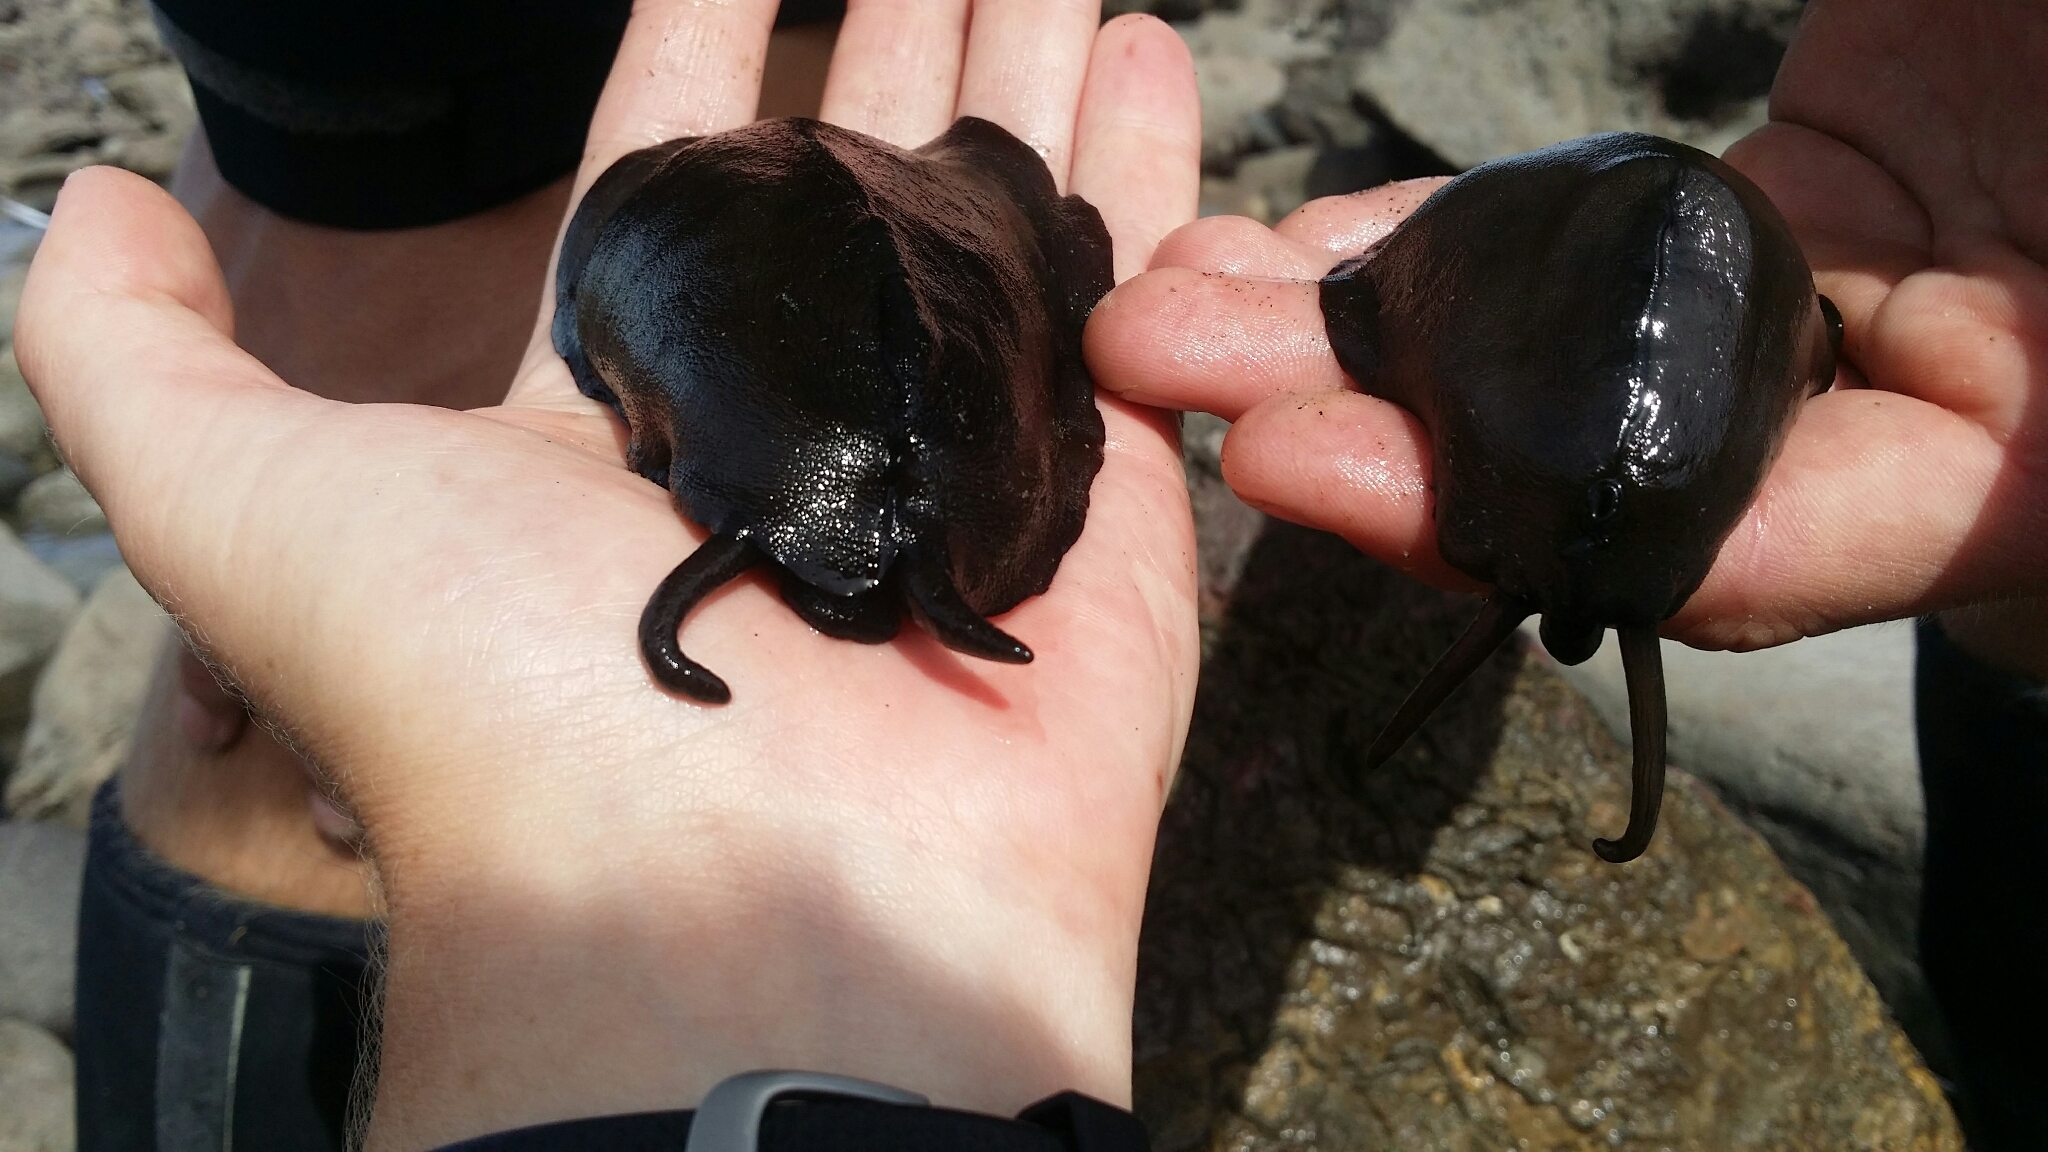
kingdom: Animalia
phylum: Mollusca
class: Gastropoda
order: Lepetellida
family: Fissurellidae
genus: Scutus
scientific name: Scutus breviculus
